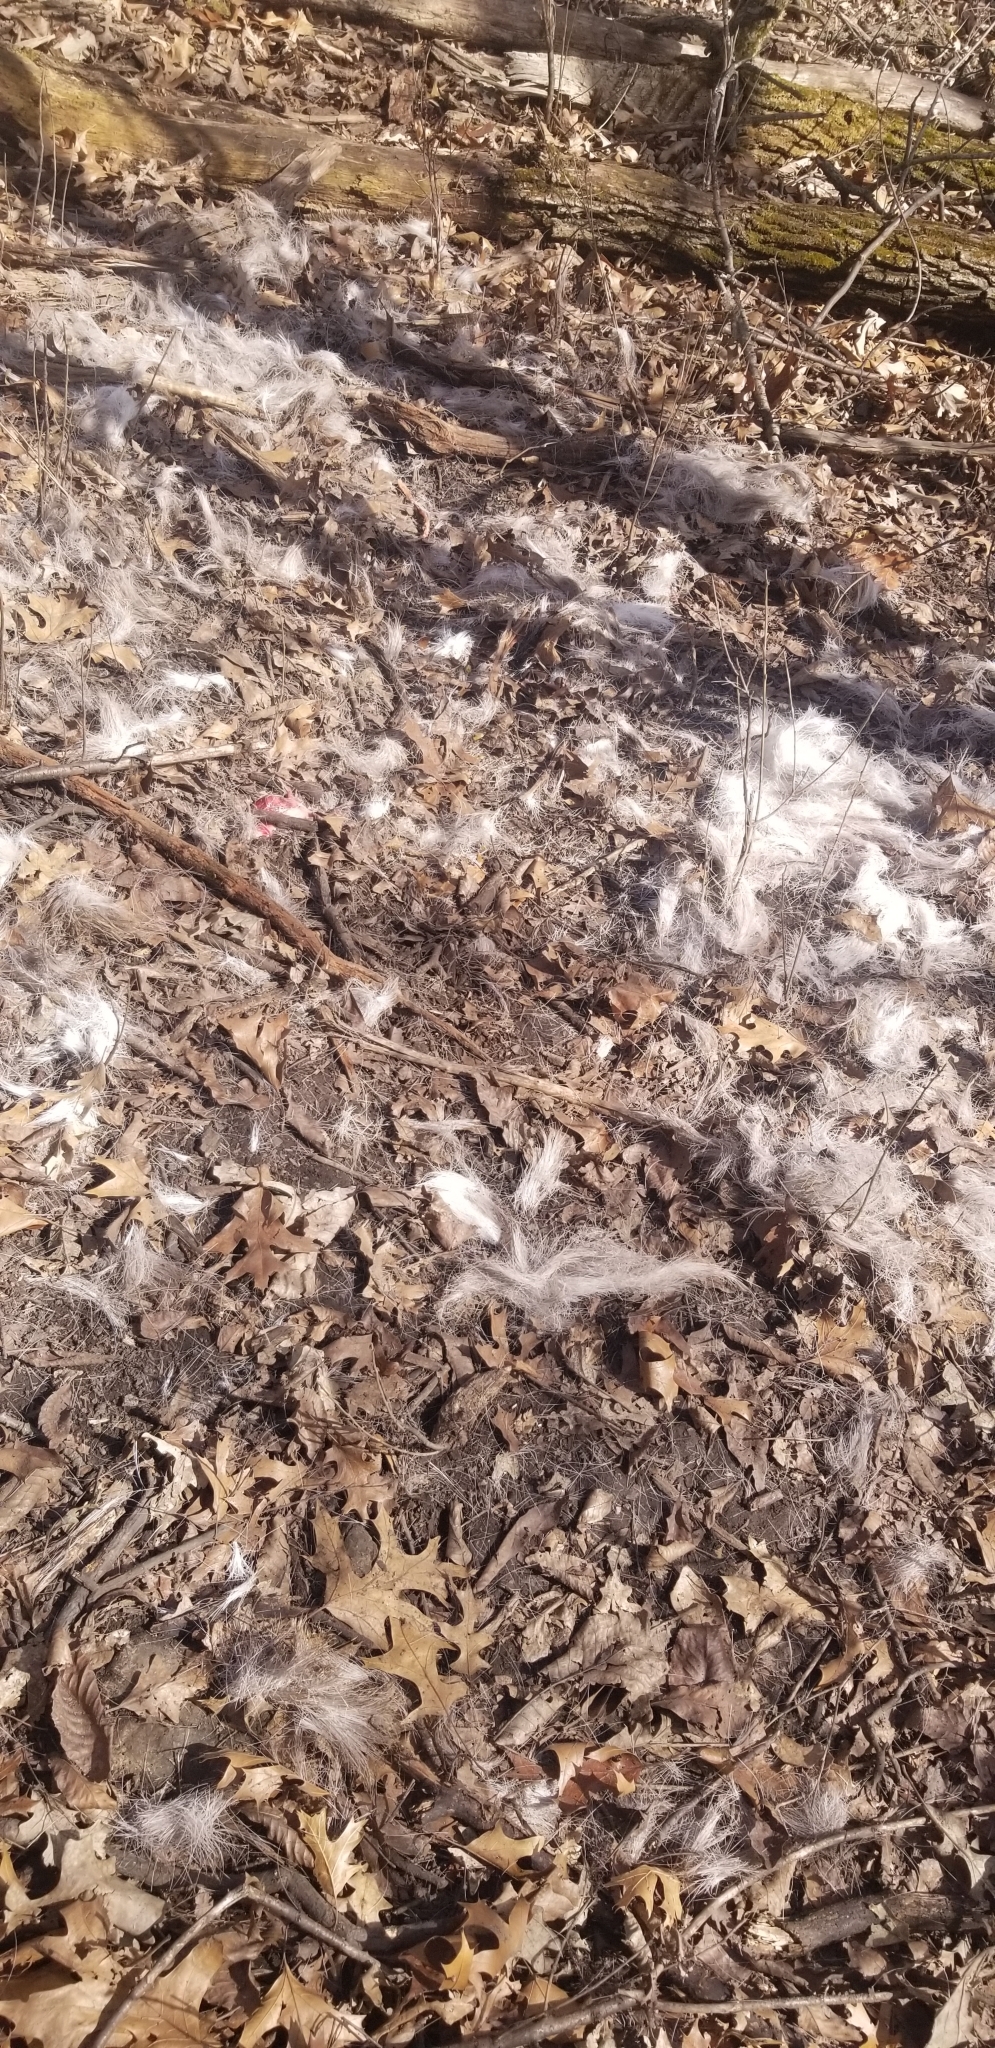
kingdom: Animalia
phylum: Chordata
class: Mammalia
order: Artiodactyla
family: Cervidae
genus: Odocoileus
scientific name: Odocoileus virginianus
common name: White-tailed deer
